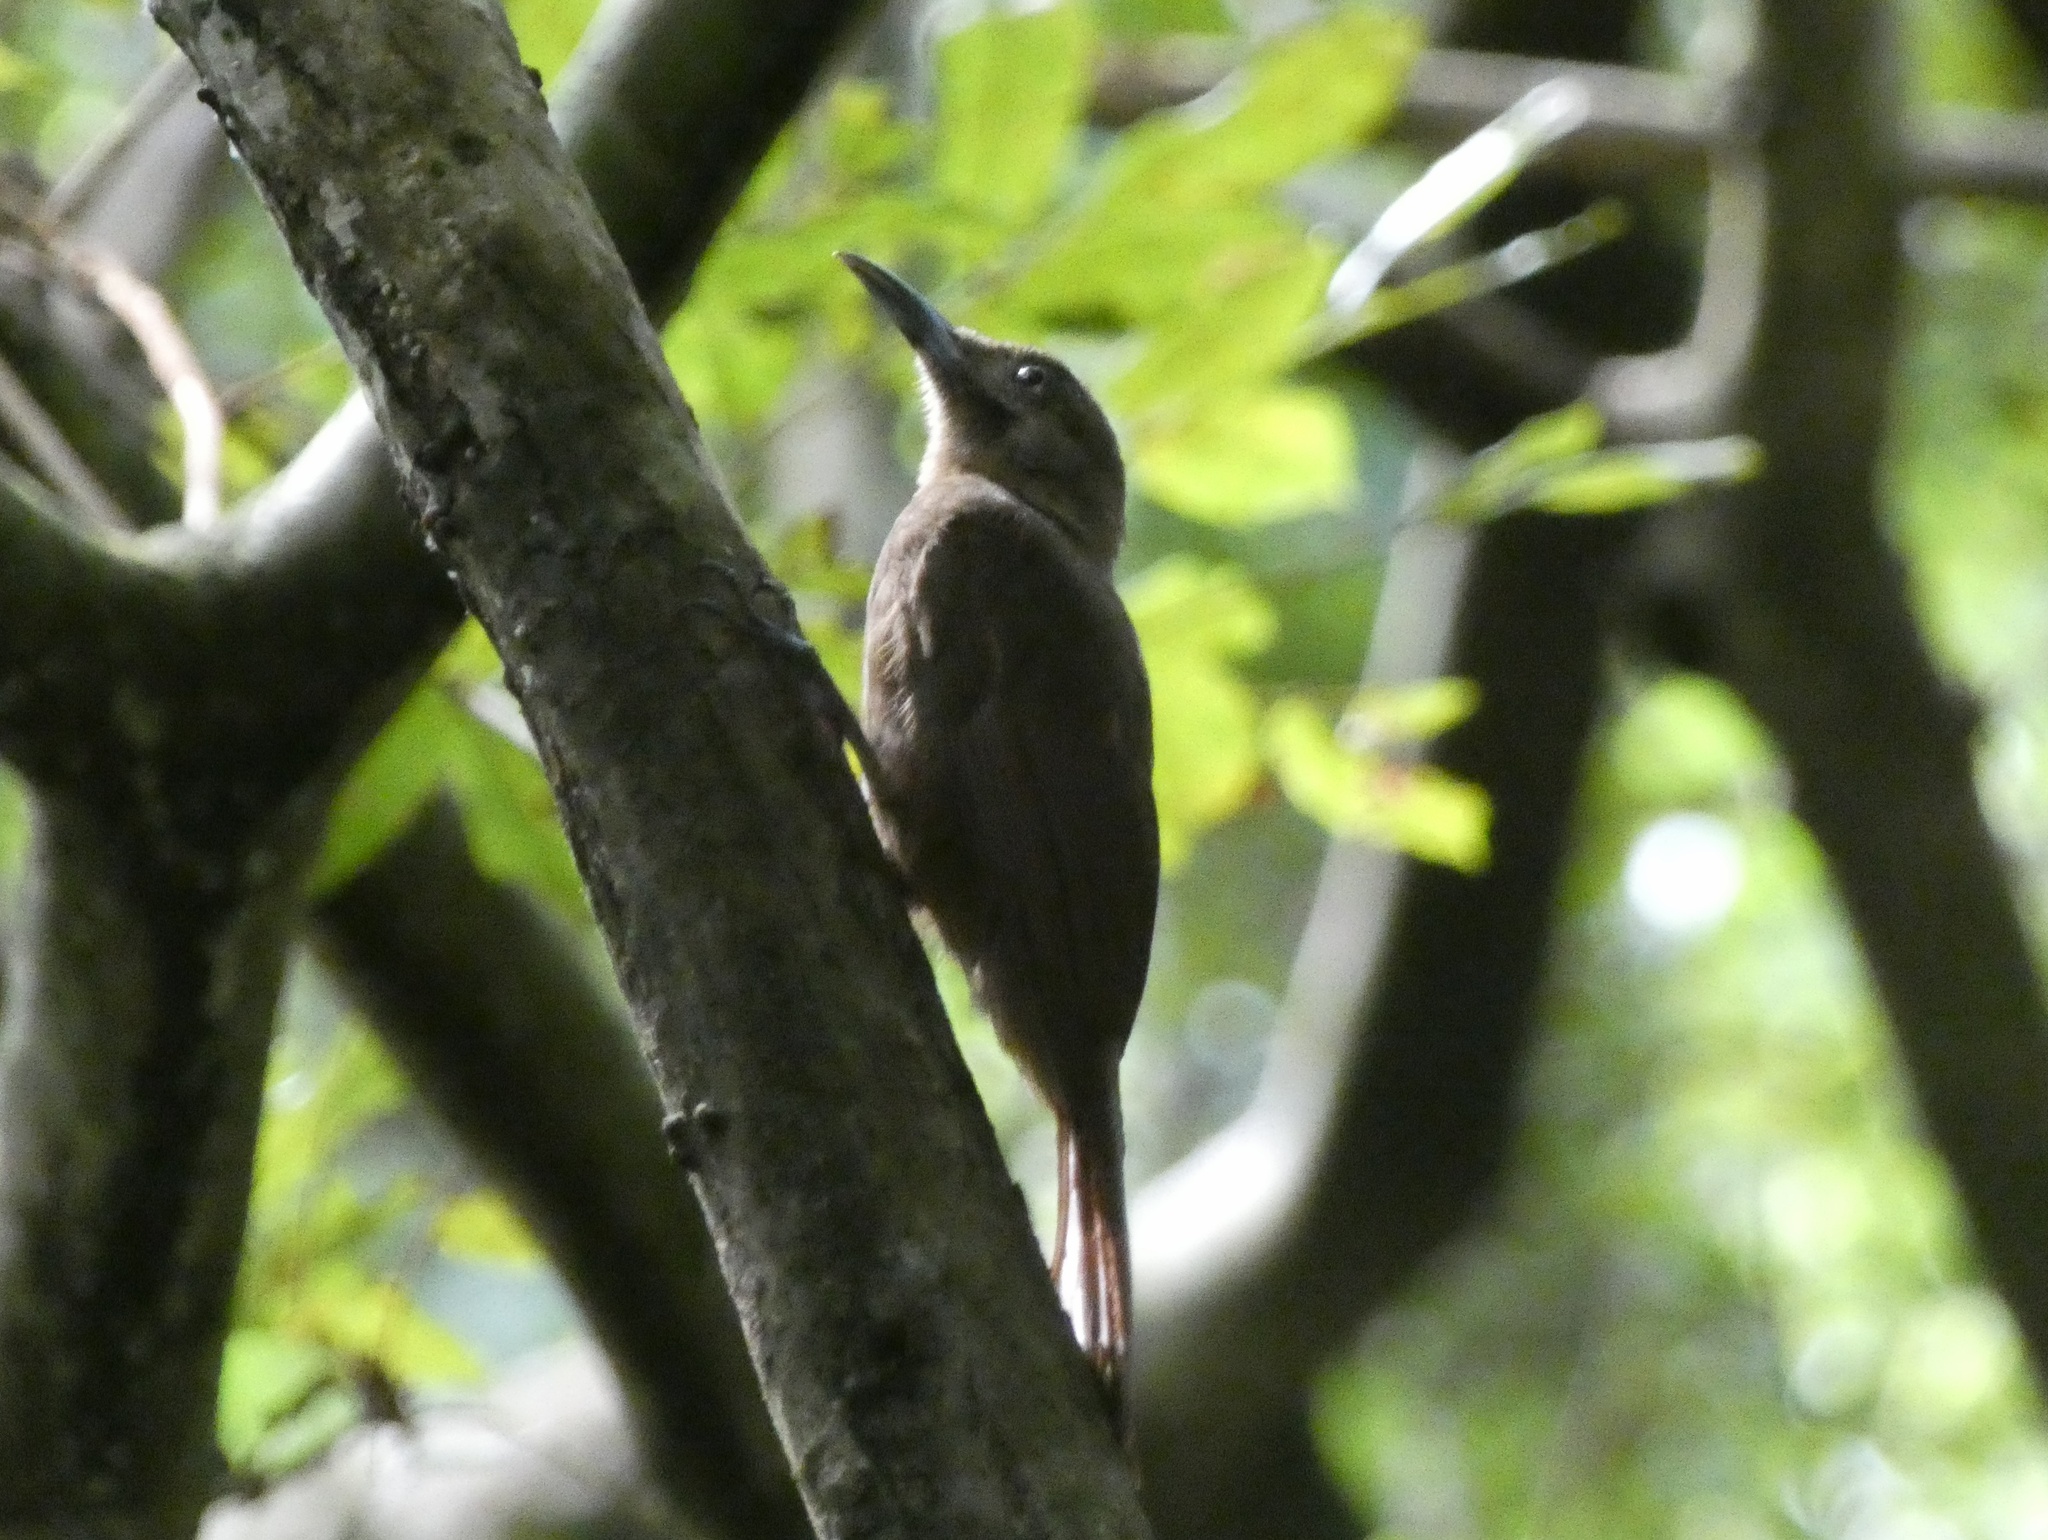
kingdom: Animalia
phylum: Chordata
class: Aves
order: Passeriformes
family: Furnariidae
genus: Dendrocincla
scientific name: Dendrocincla fuliginosa
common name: Plain-brown woodcreeper
